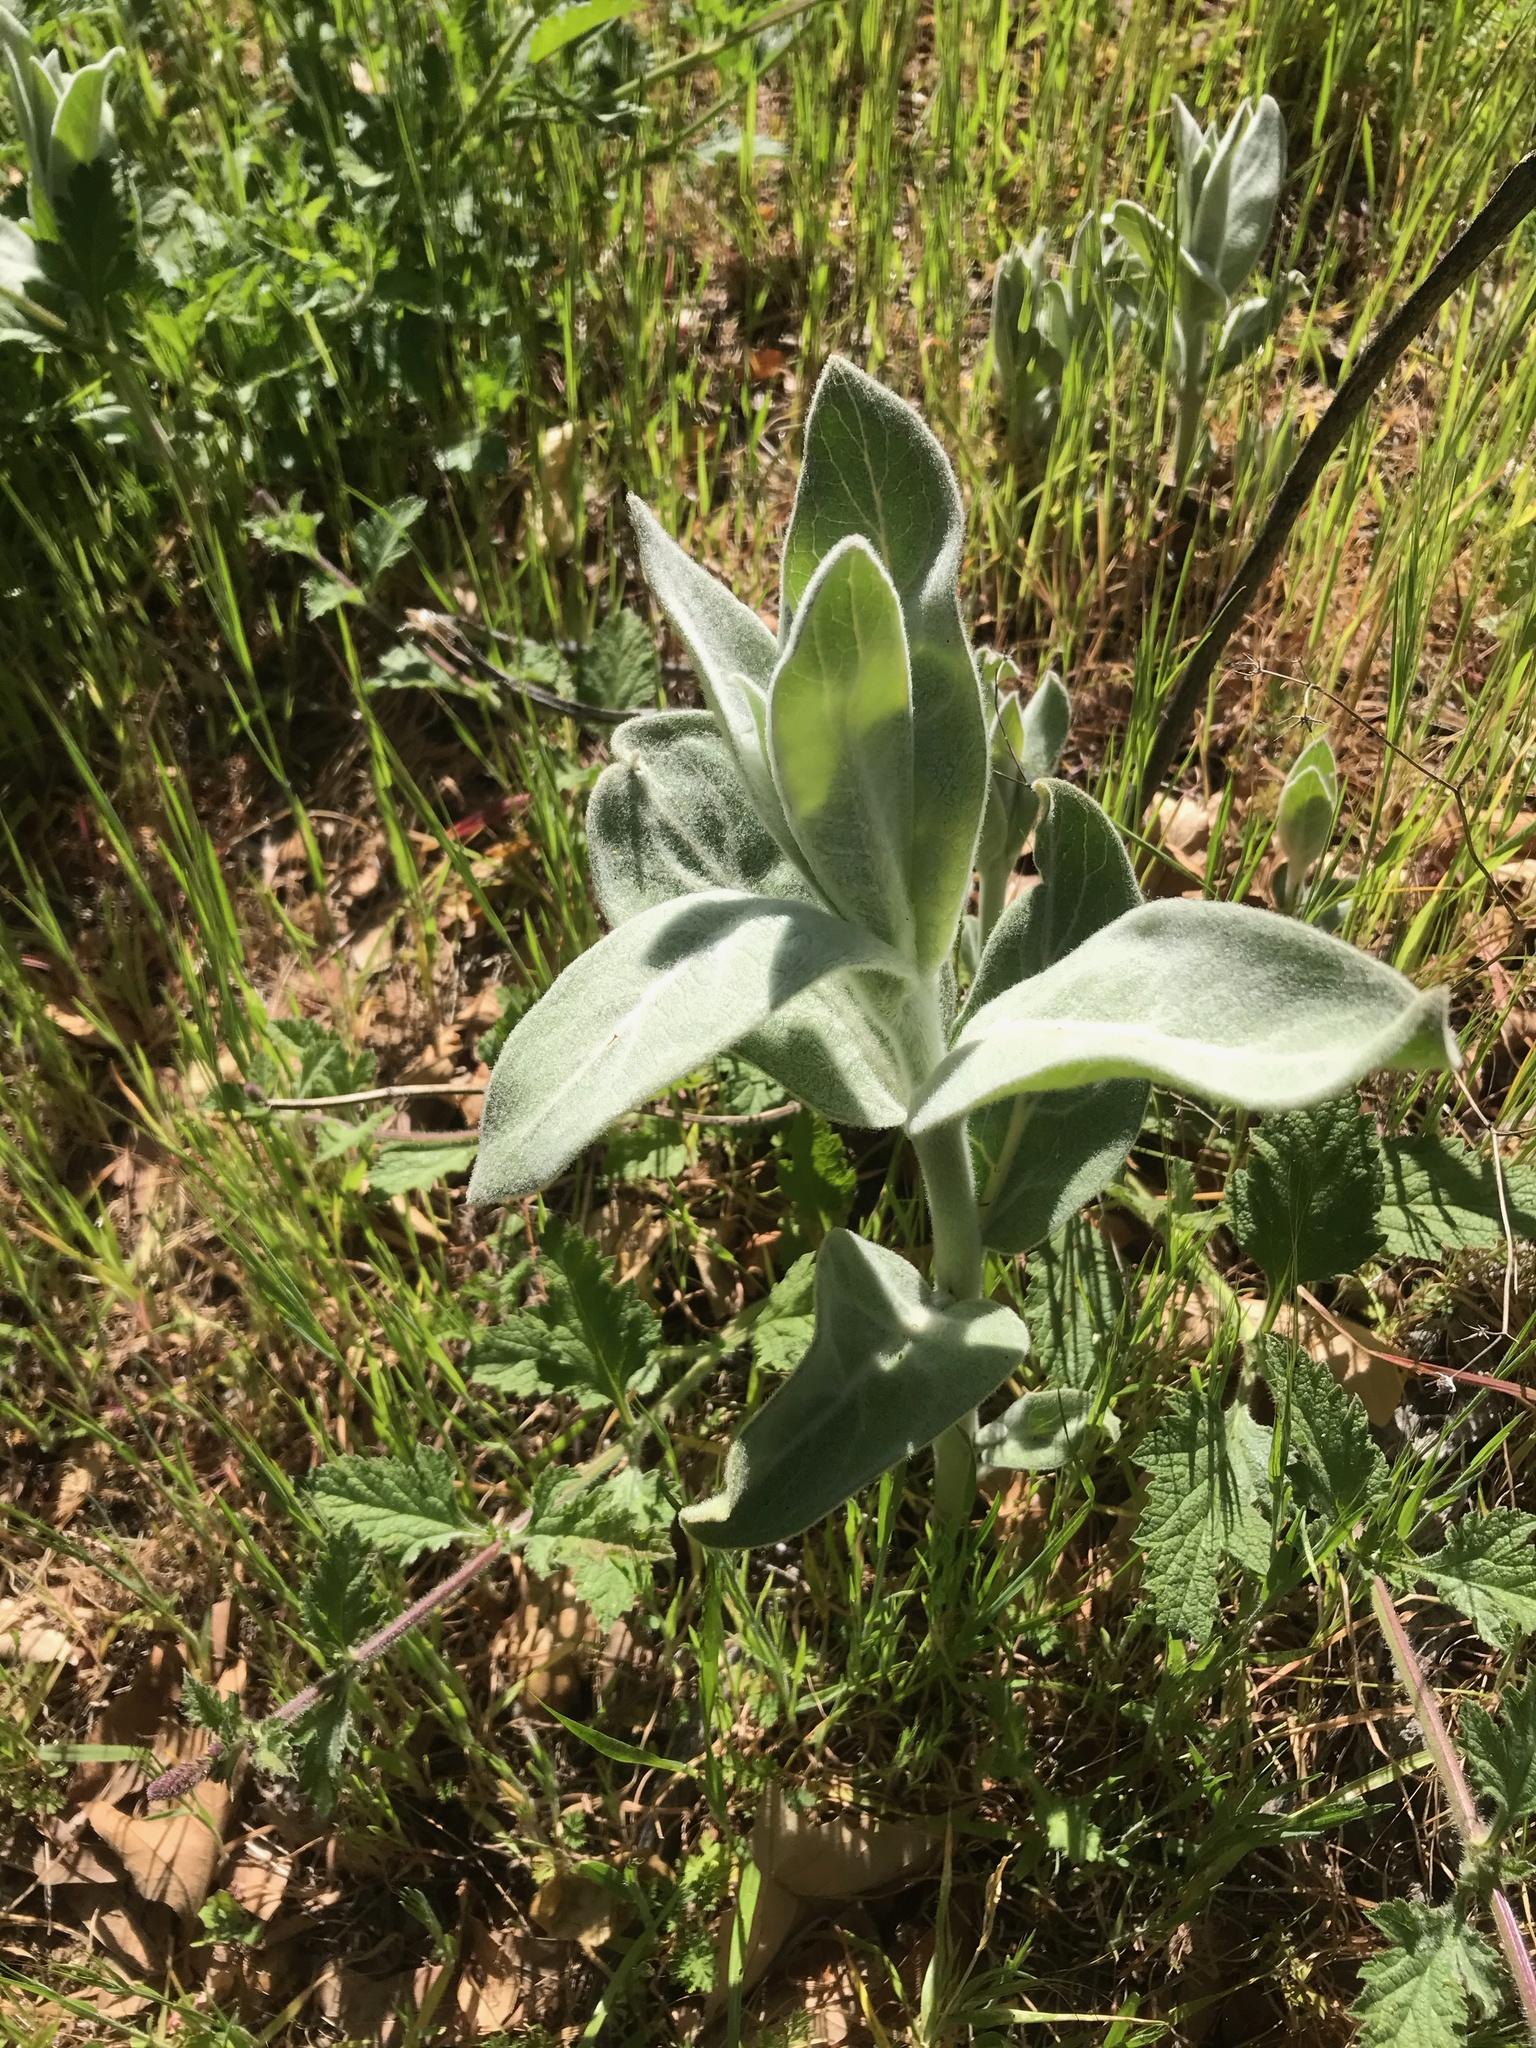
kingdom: Plantae
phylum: Tracheophyta
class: Magnoliopsida
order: Gentianales
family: Apocynaceae
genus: Asclepias
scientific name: Asclepias eriocarpa
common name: Indian milkweed
